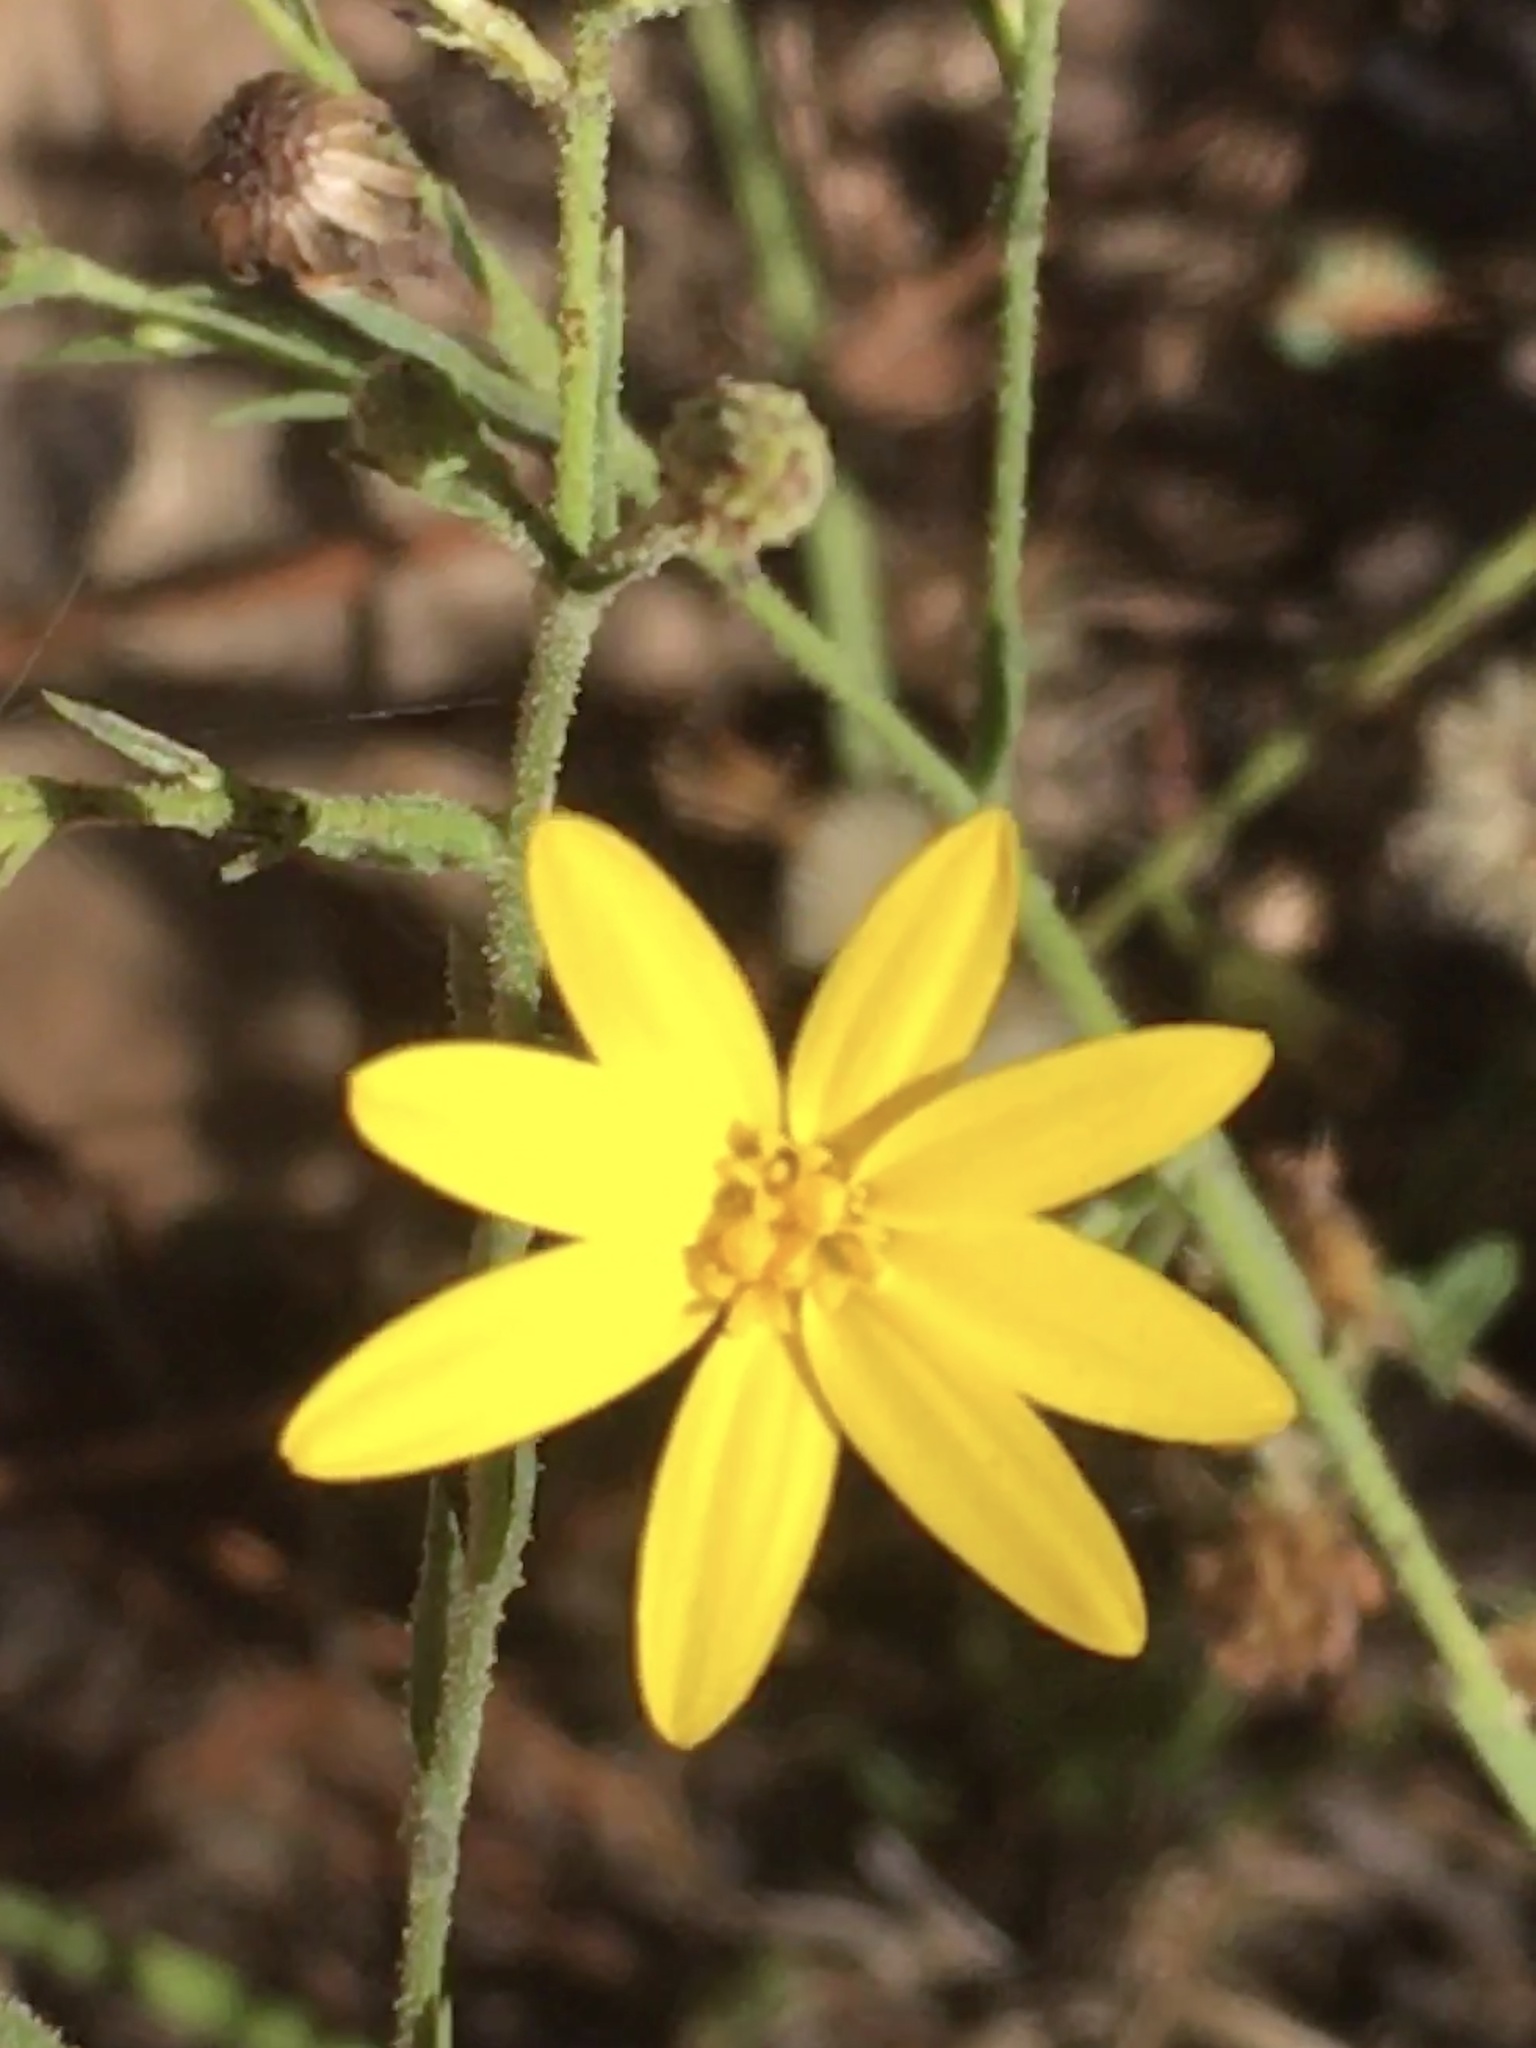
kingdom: Plantae
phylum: Tracheophyta
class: Magnoliopsida
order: Asterales
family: Asteraceae
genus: Pityopsis
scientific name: Pityopsis aspera
